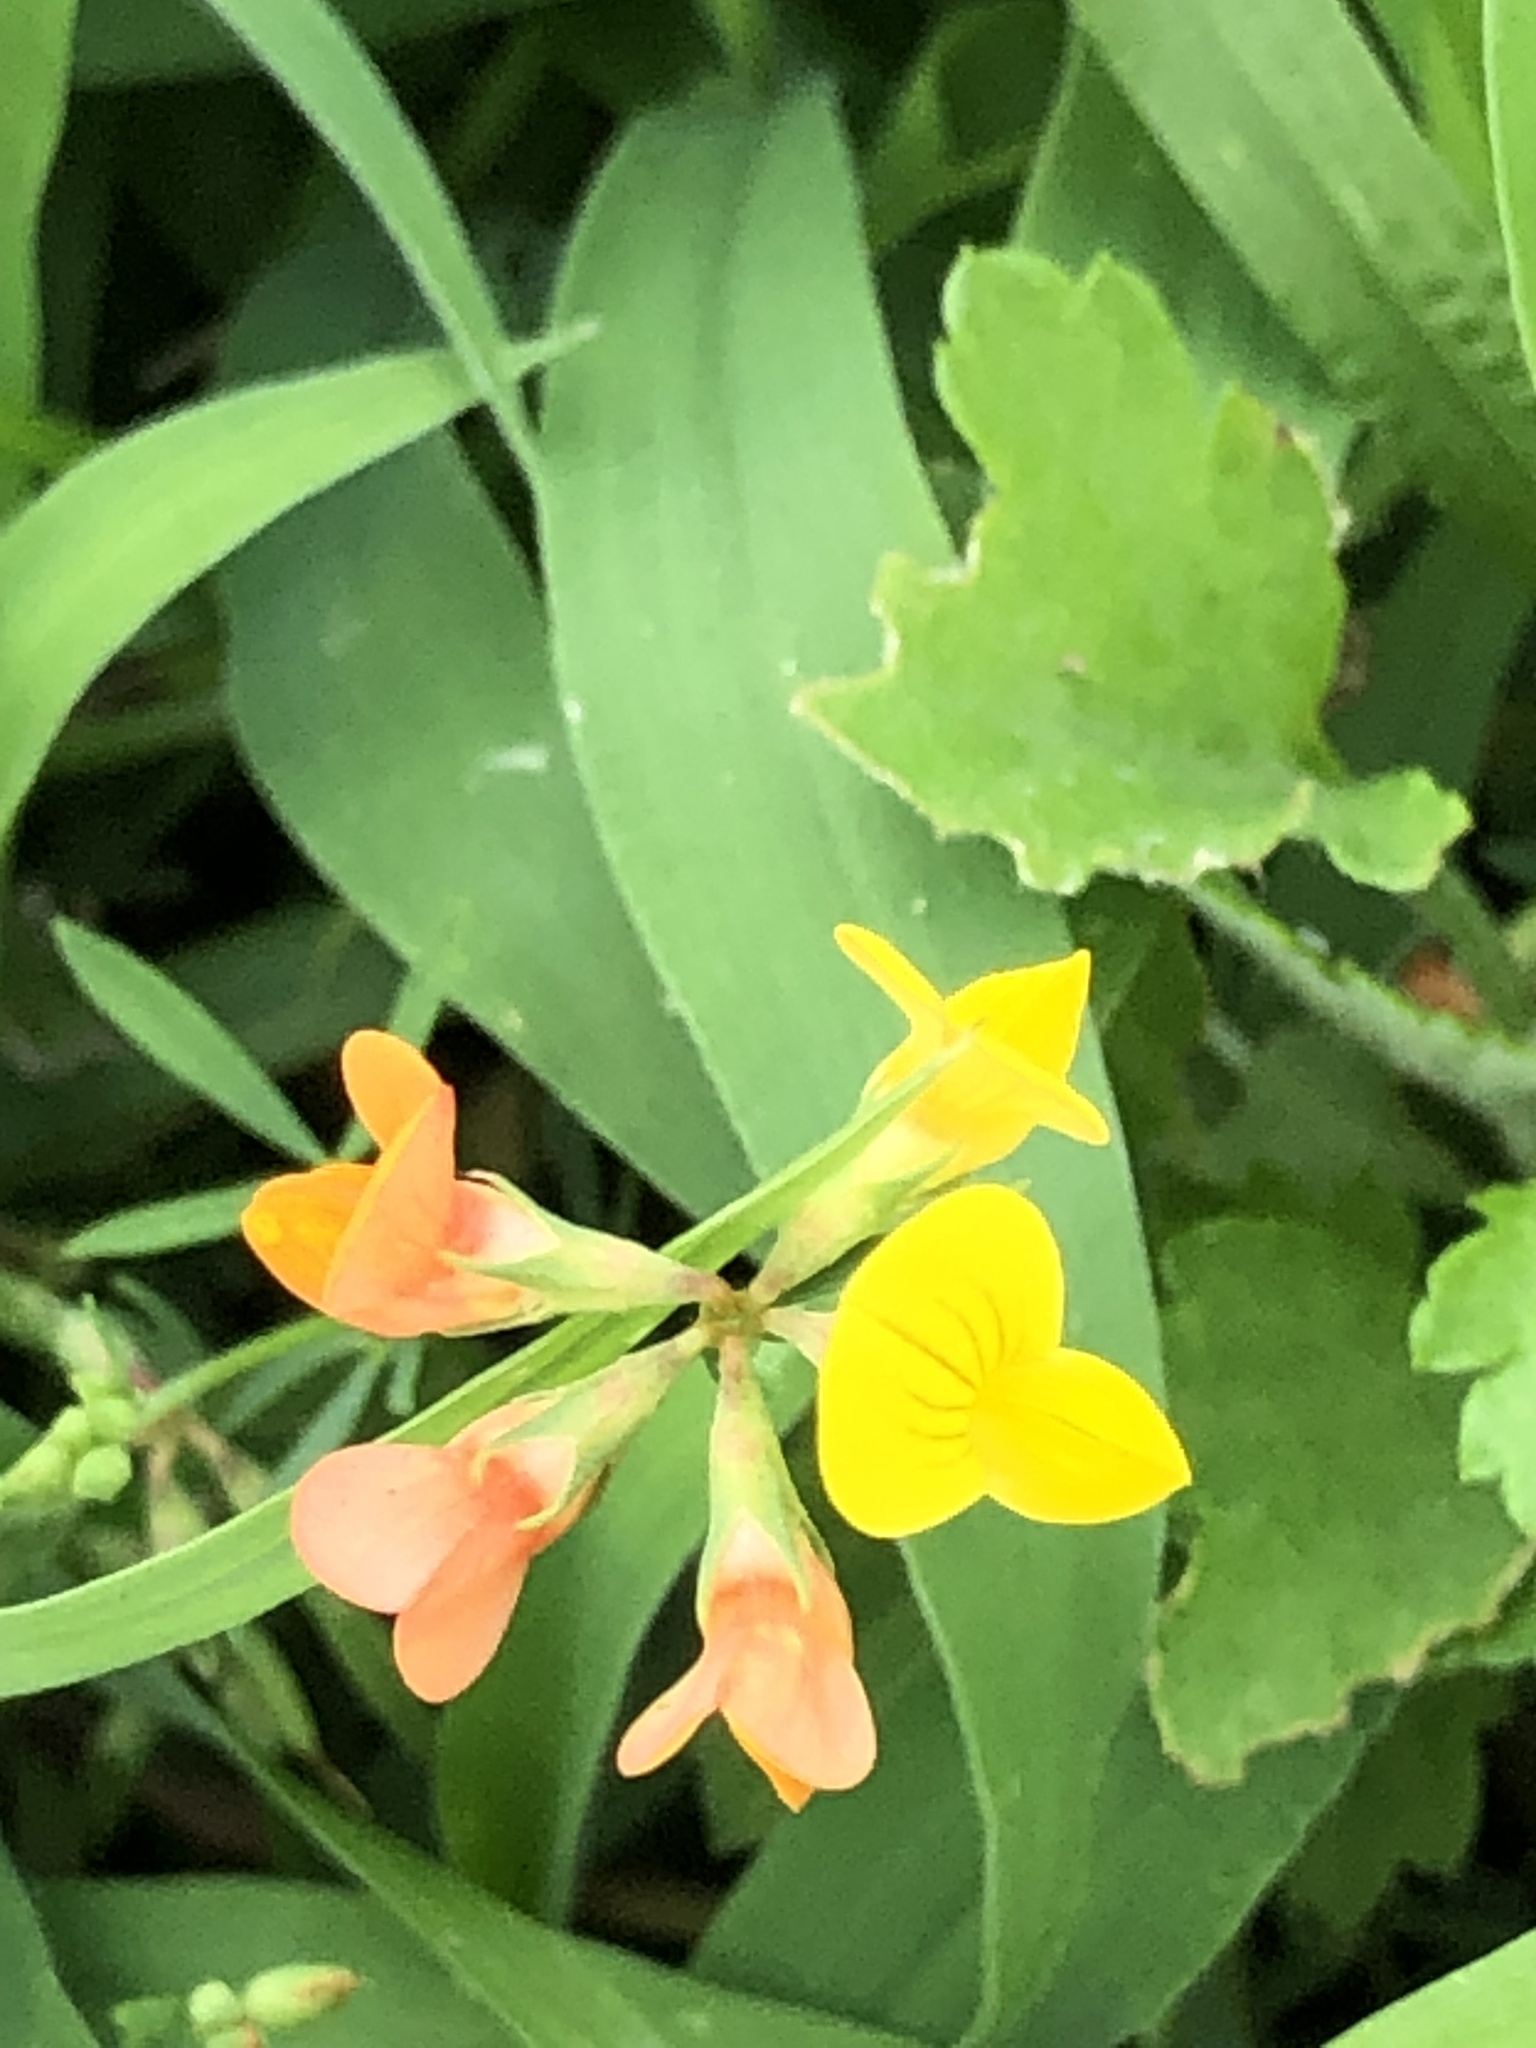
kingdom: Plantae
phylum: Tracheophyta
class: Magnoliopsida
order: Fabales
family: Fabaceae
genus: Lotus
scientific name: Lotus tenuis
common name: Narrow-leaved bird's-foot-trefoil
